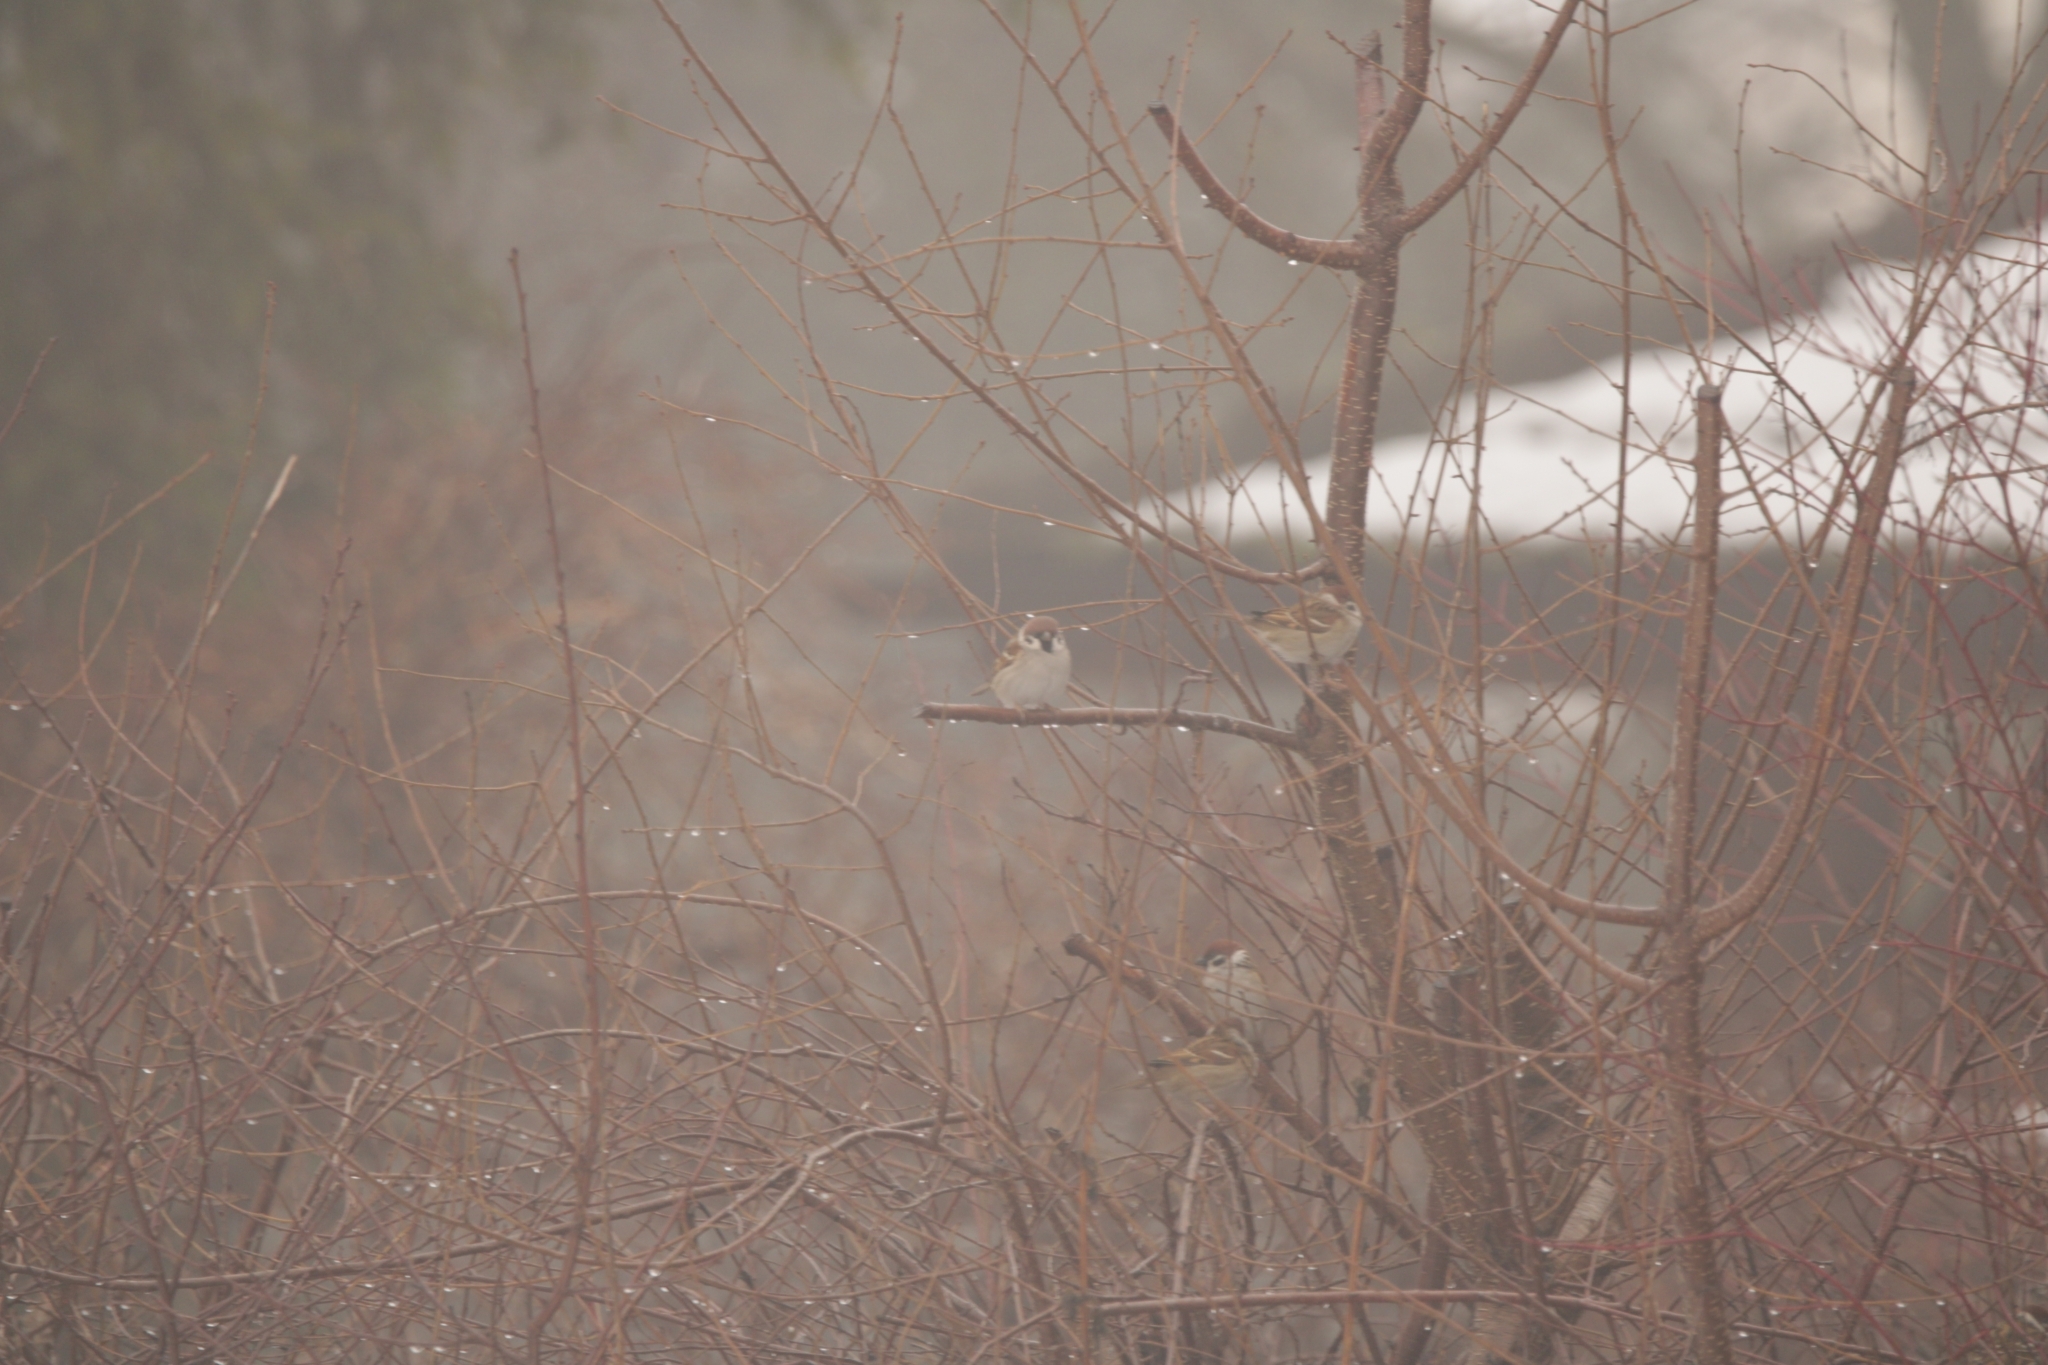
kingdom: Animalia
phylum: Chordata
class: Aves
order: Passeriformes
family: Passeridae
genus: Passer
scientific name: Passer montanus
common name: Eurasian tree sparrow
